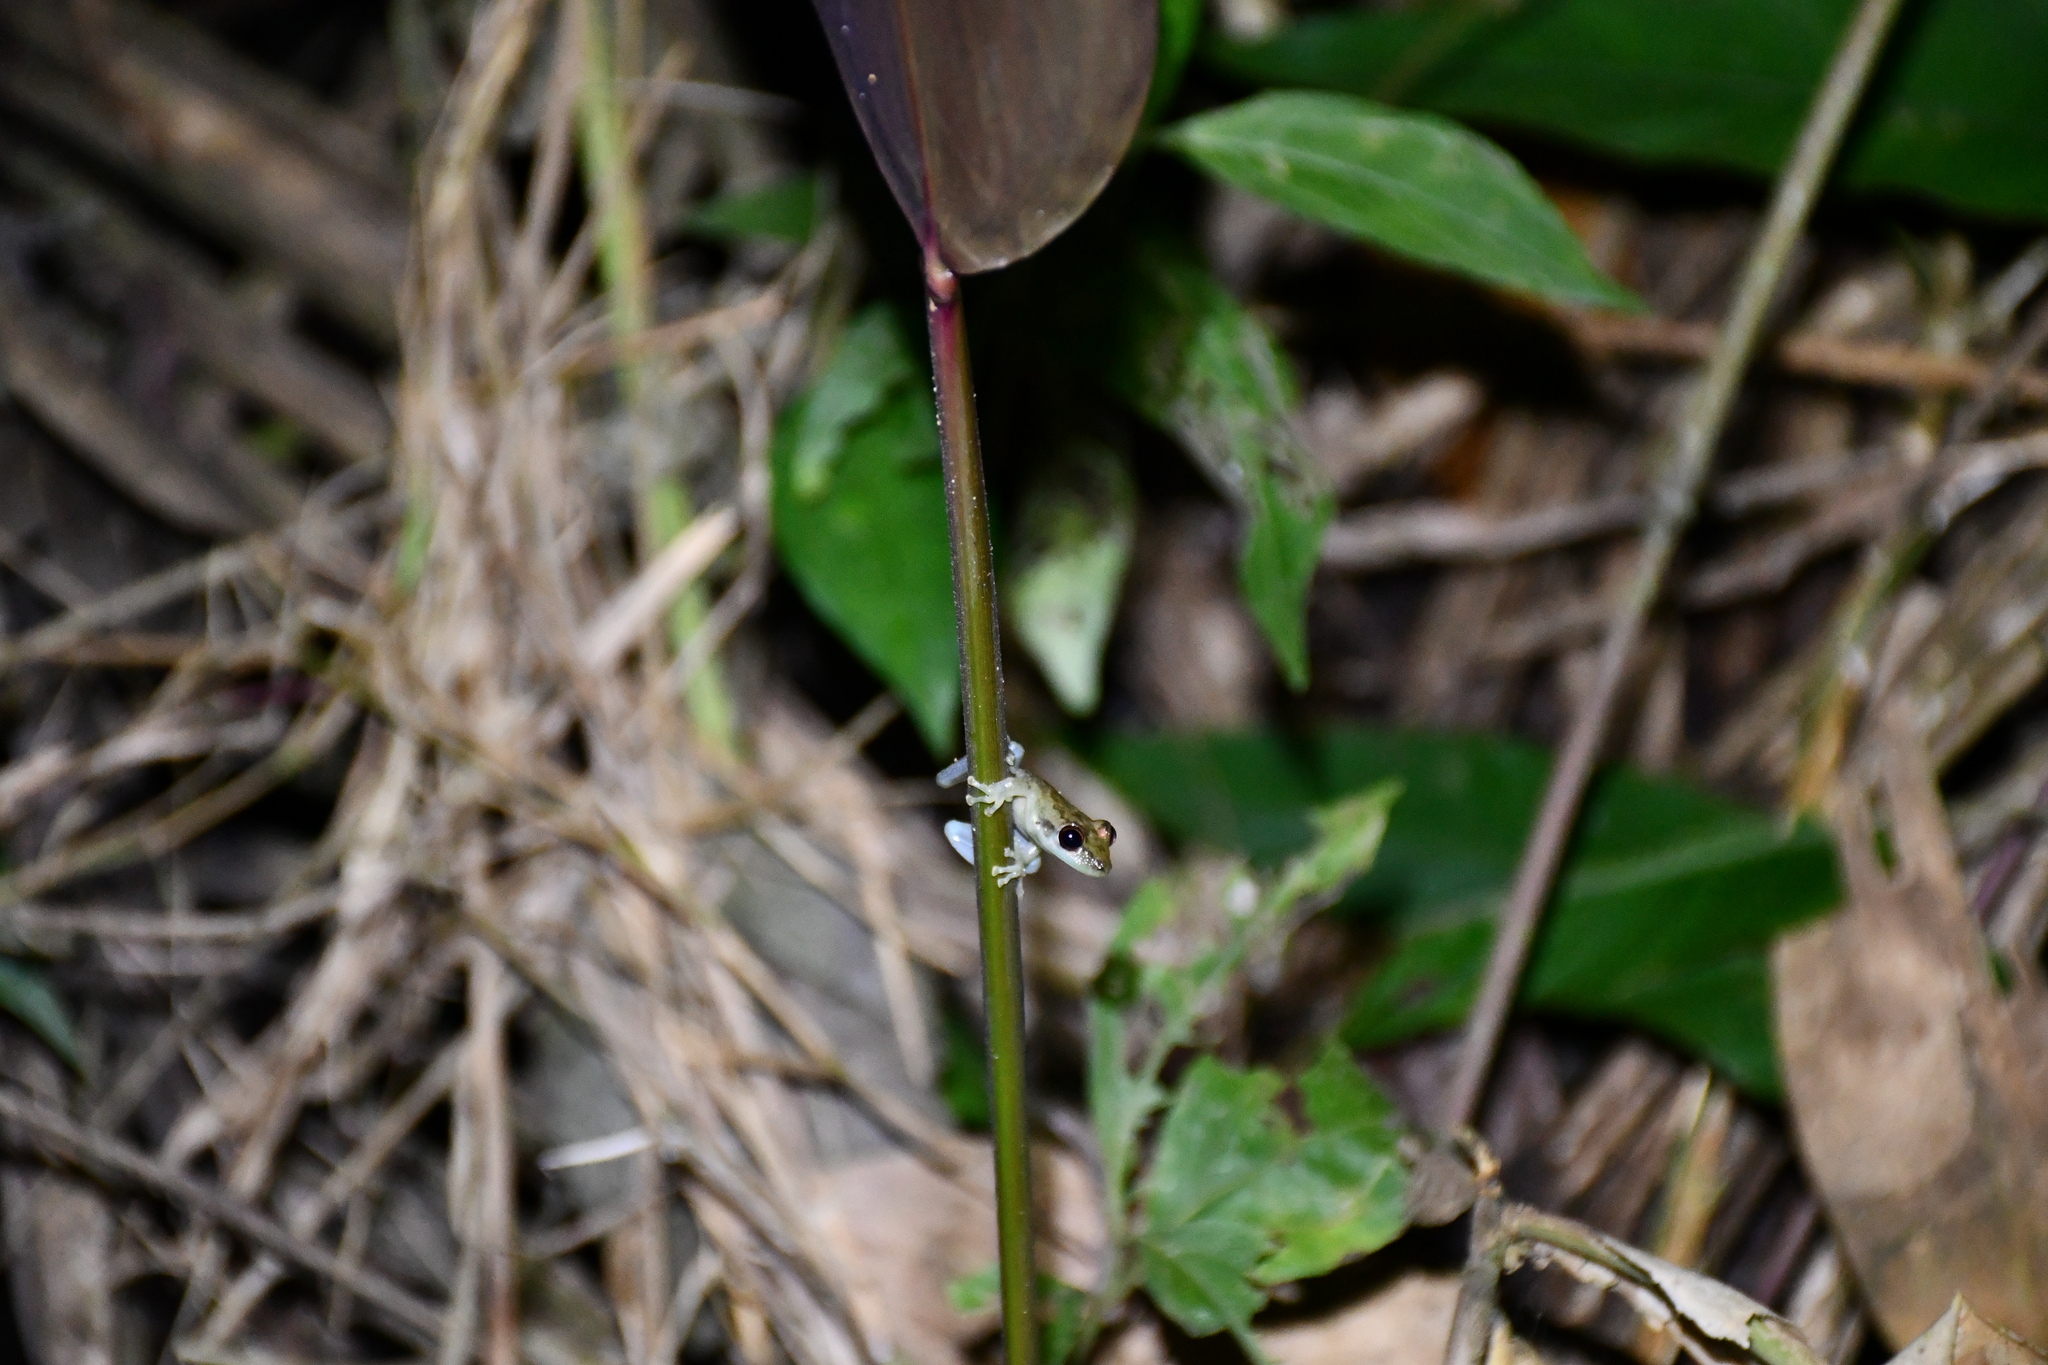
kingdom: Animalia
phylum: Chordata
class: Amphibia
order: Anura
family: Hylidae
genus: Scinax
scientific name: Scinax ruber
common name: Red snouted treefrog
